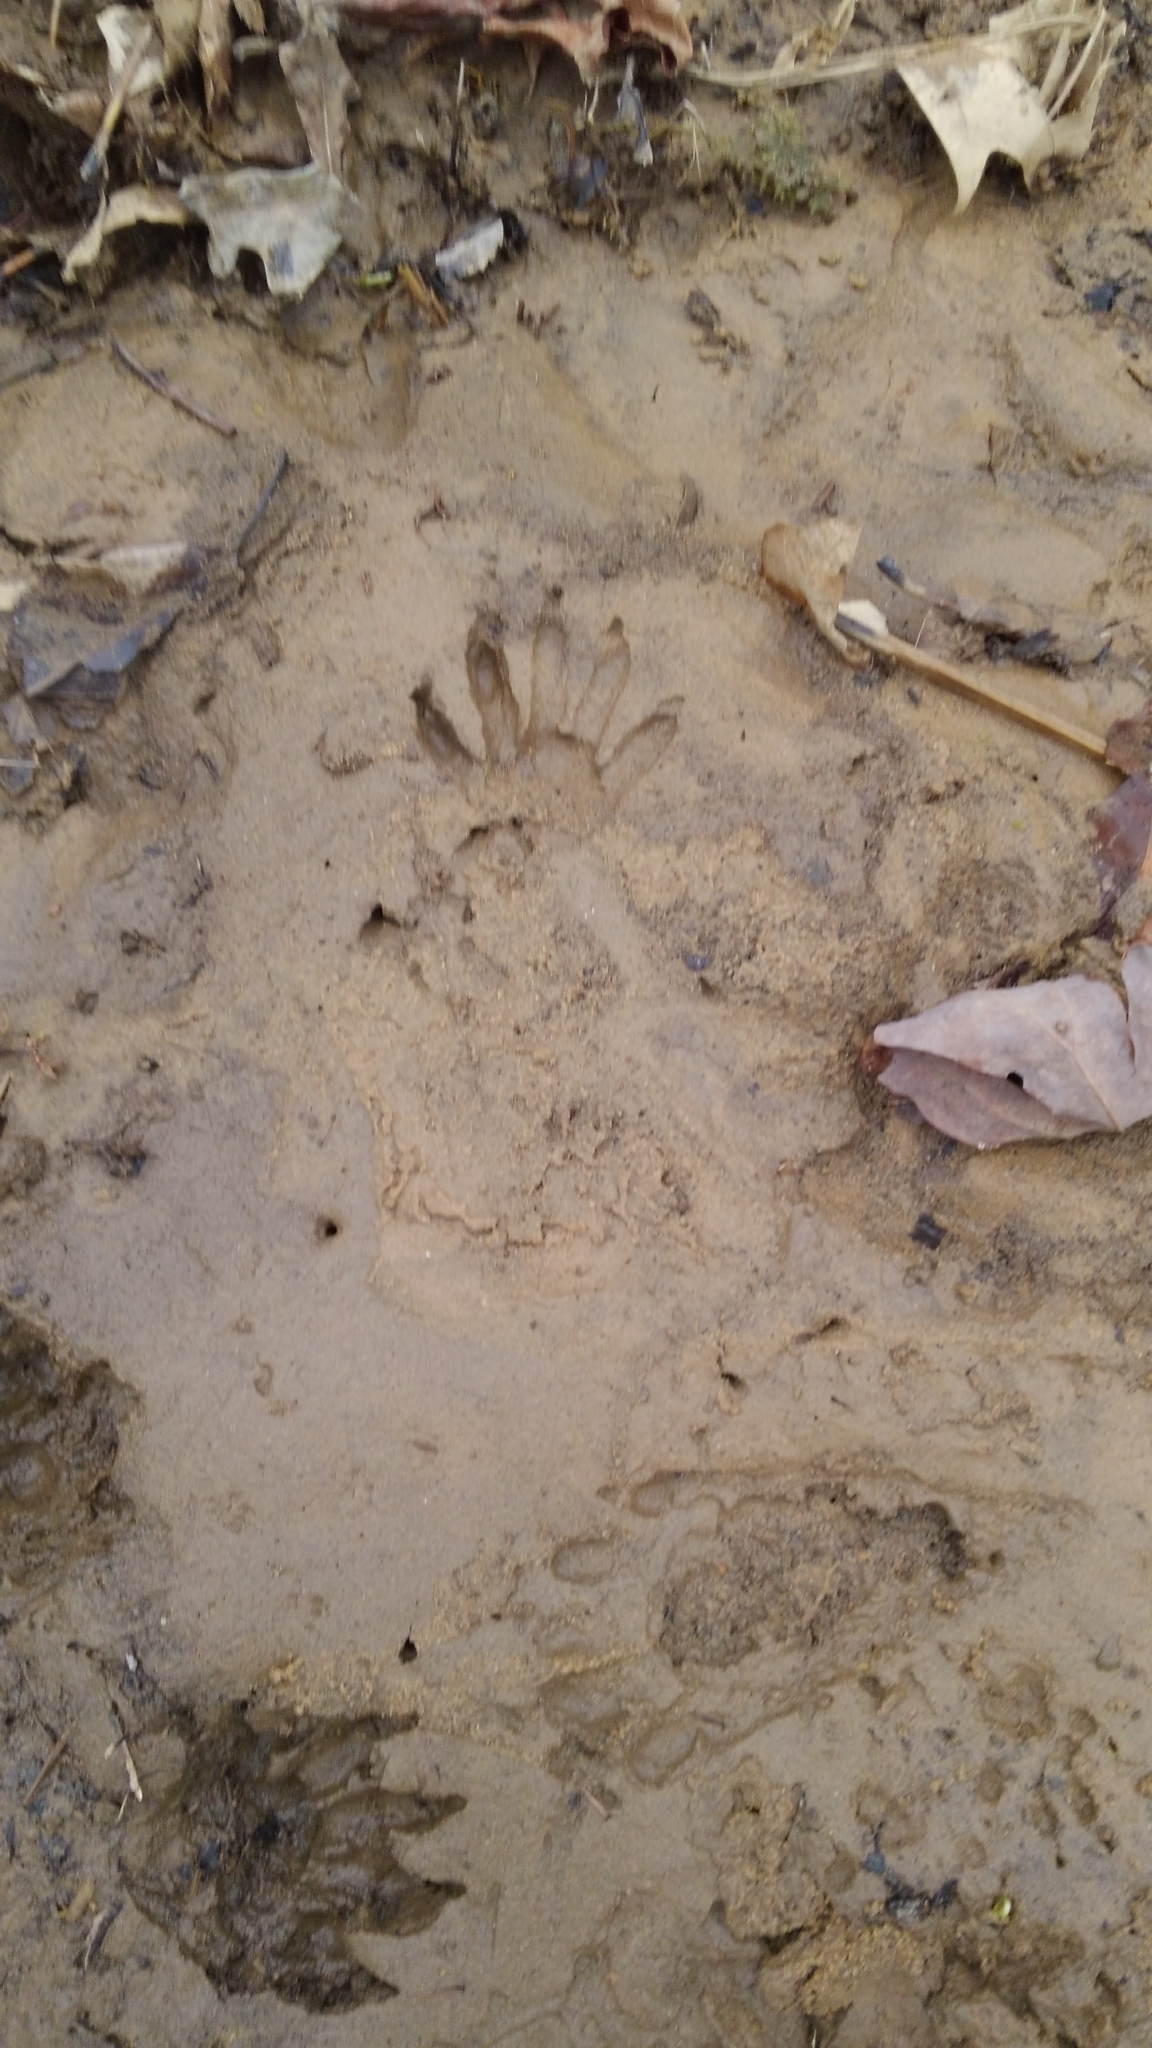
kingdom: Animalia
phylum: Chordata
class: Mammalia
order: Carnivora
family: Procyonidae
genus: Procyon
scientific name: Procyon lotor
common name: Raccoon
